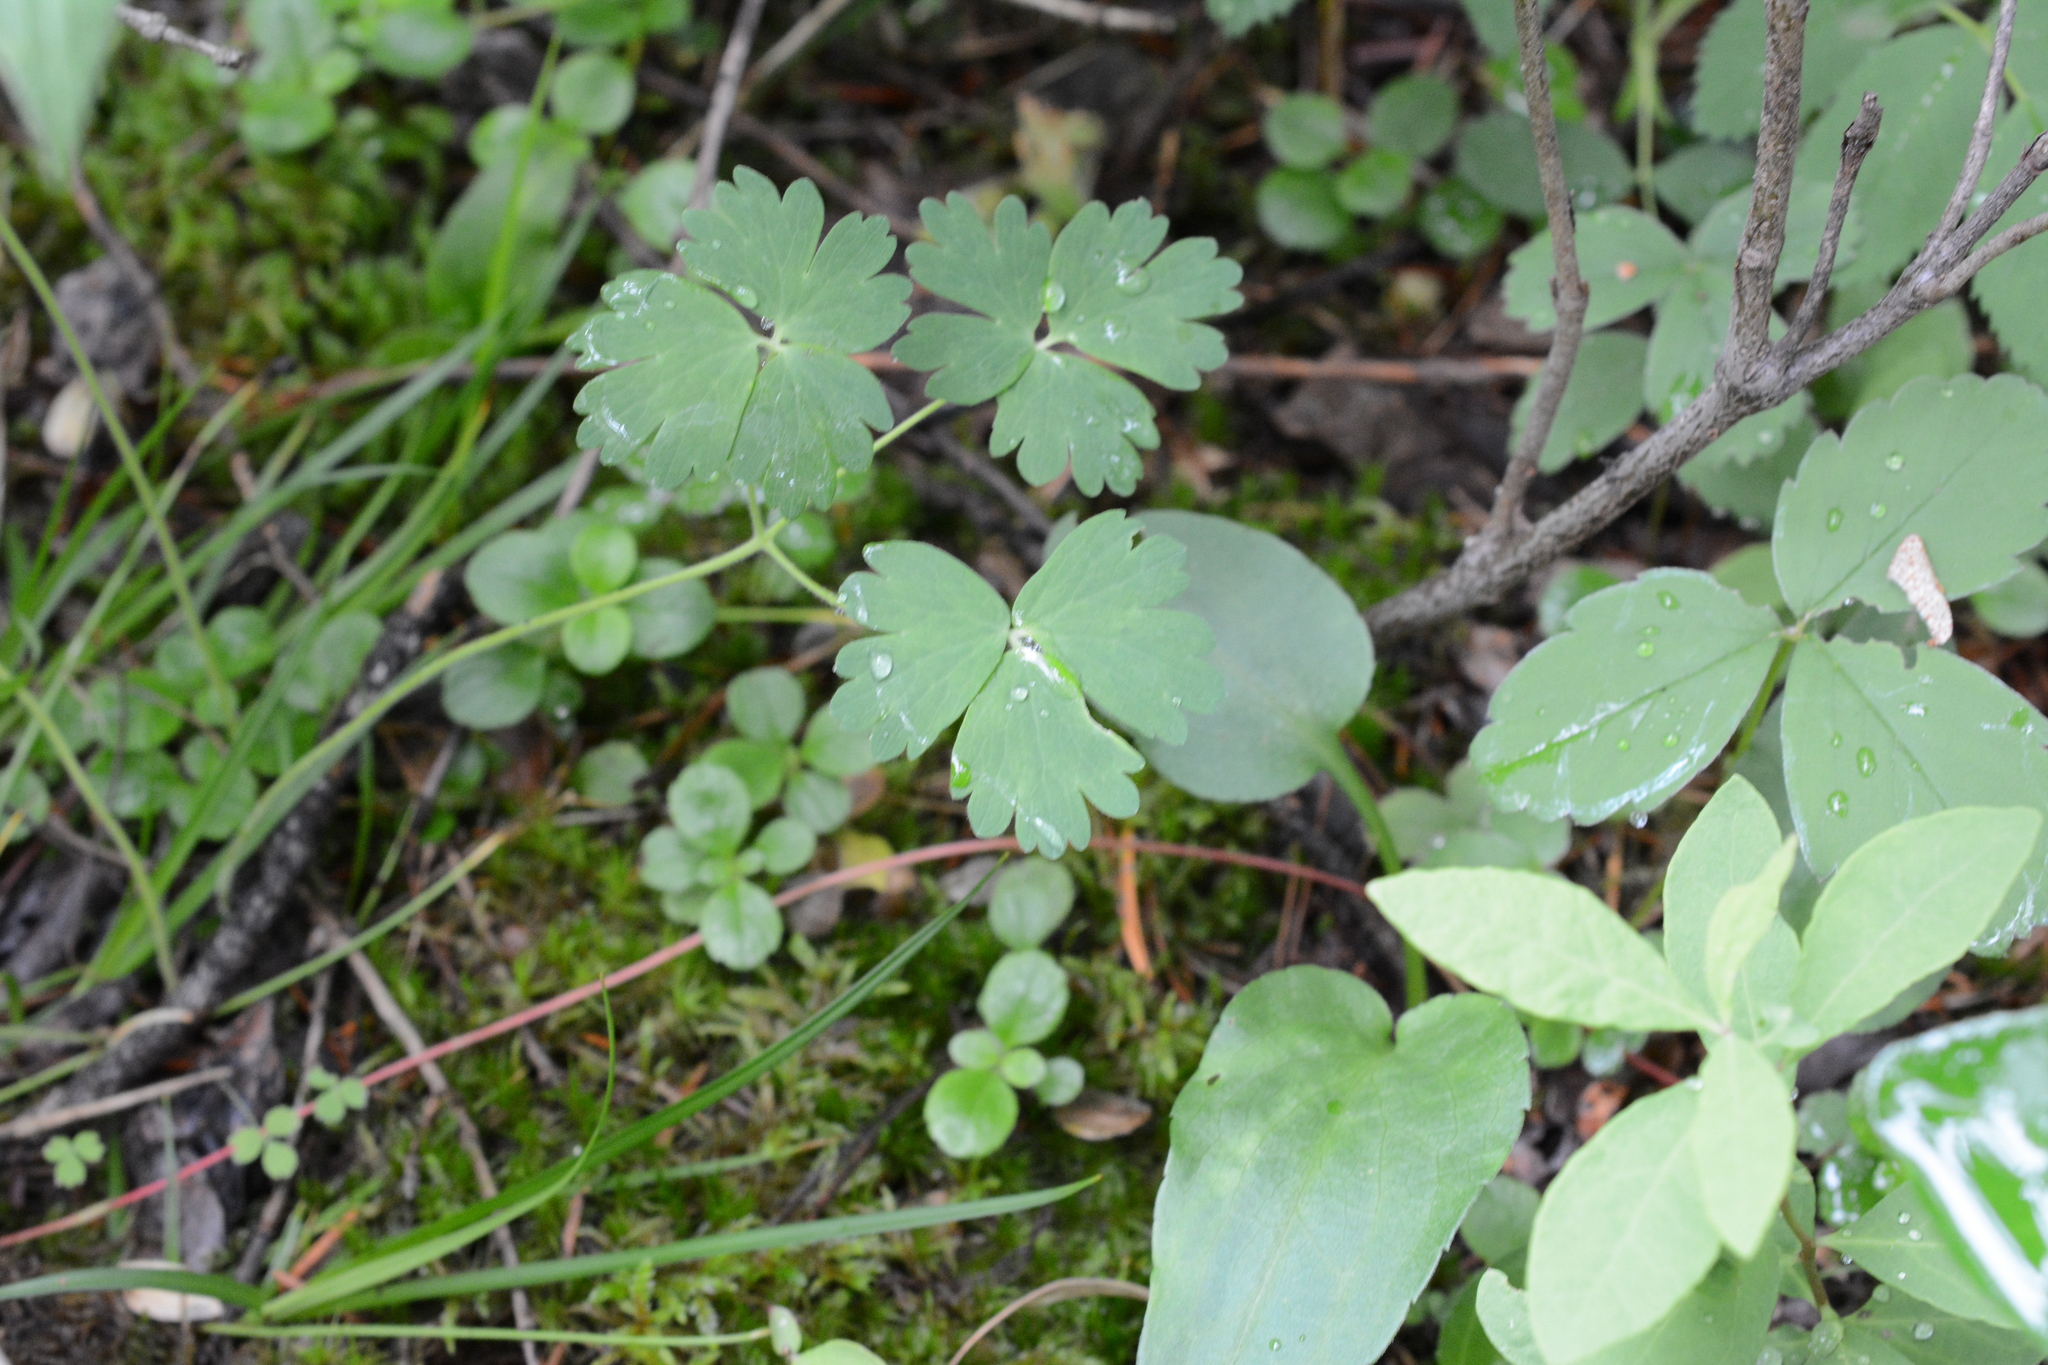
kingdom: Plantae
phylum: Tracheophyta
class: Magnoliopsida
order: Ranunculales
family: Ranunculaceae
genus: Aquilegia
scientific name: Aquilegia formosa
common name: Sitka columbine
